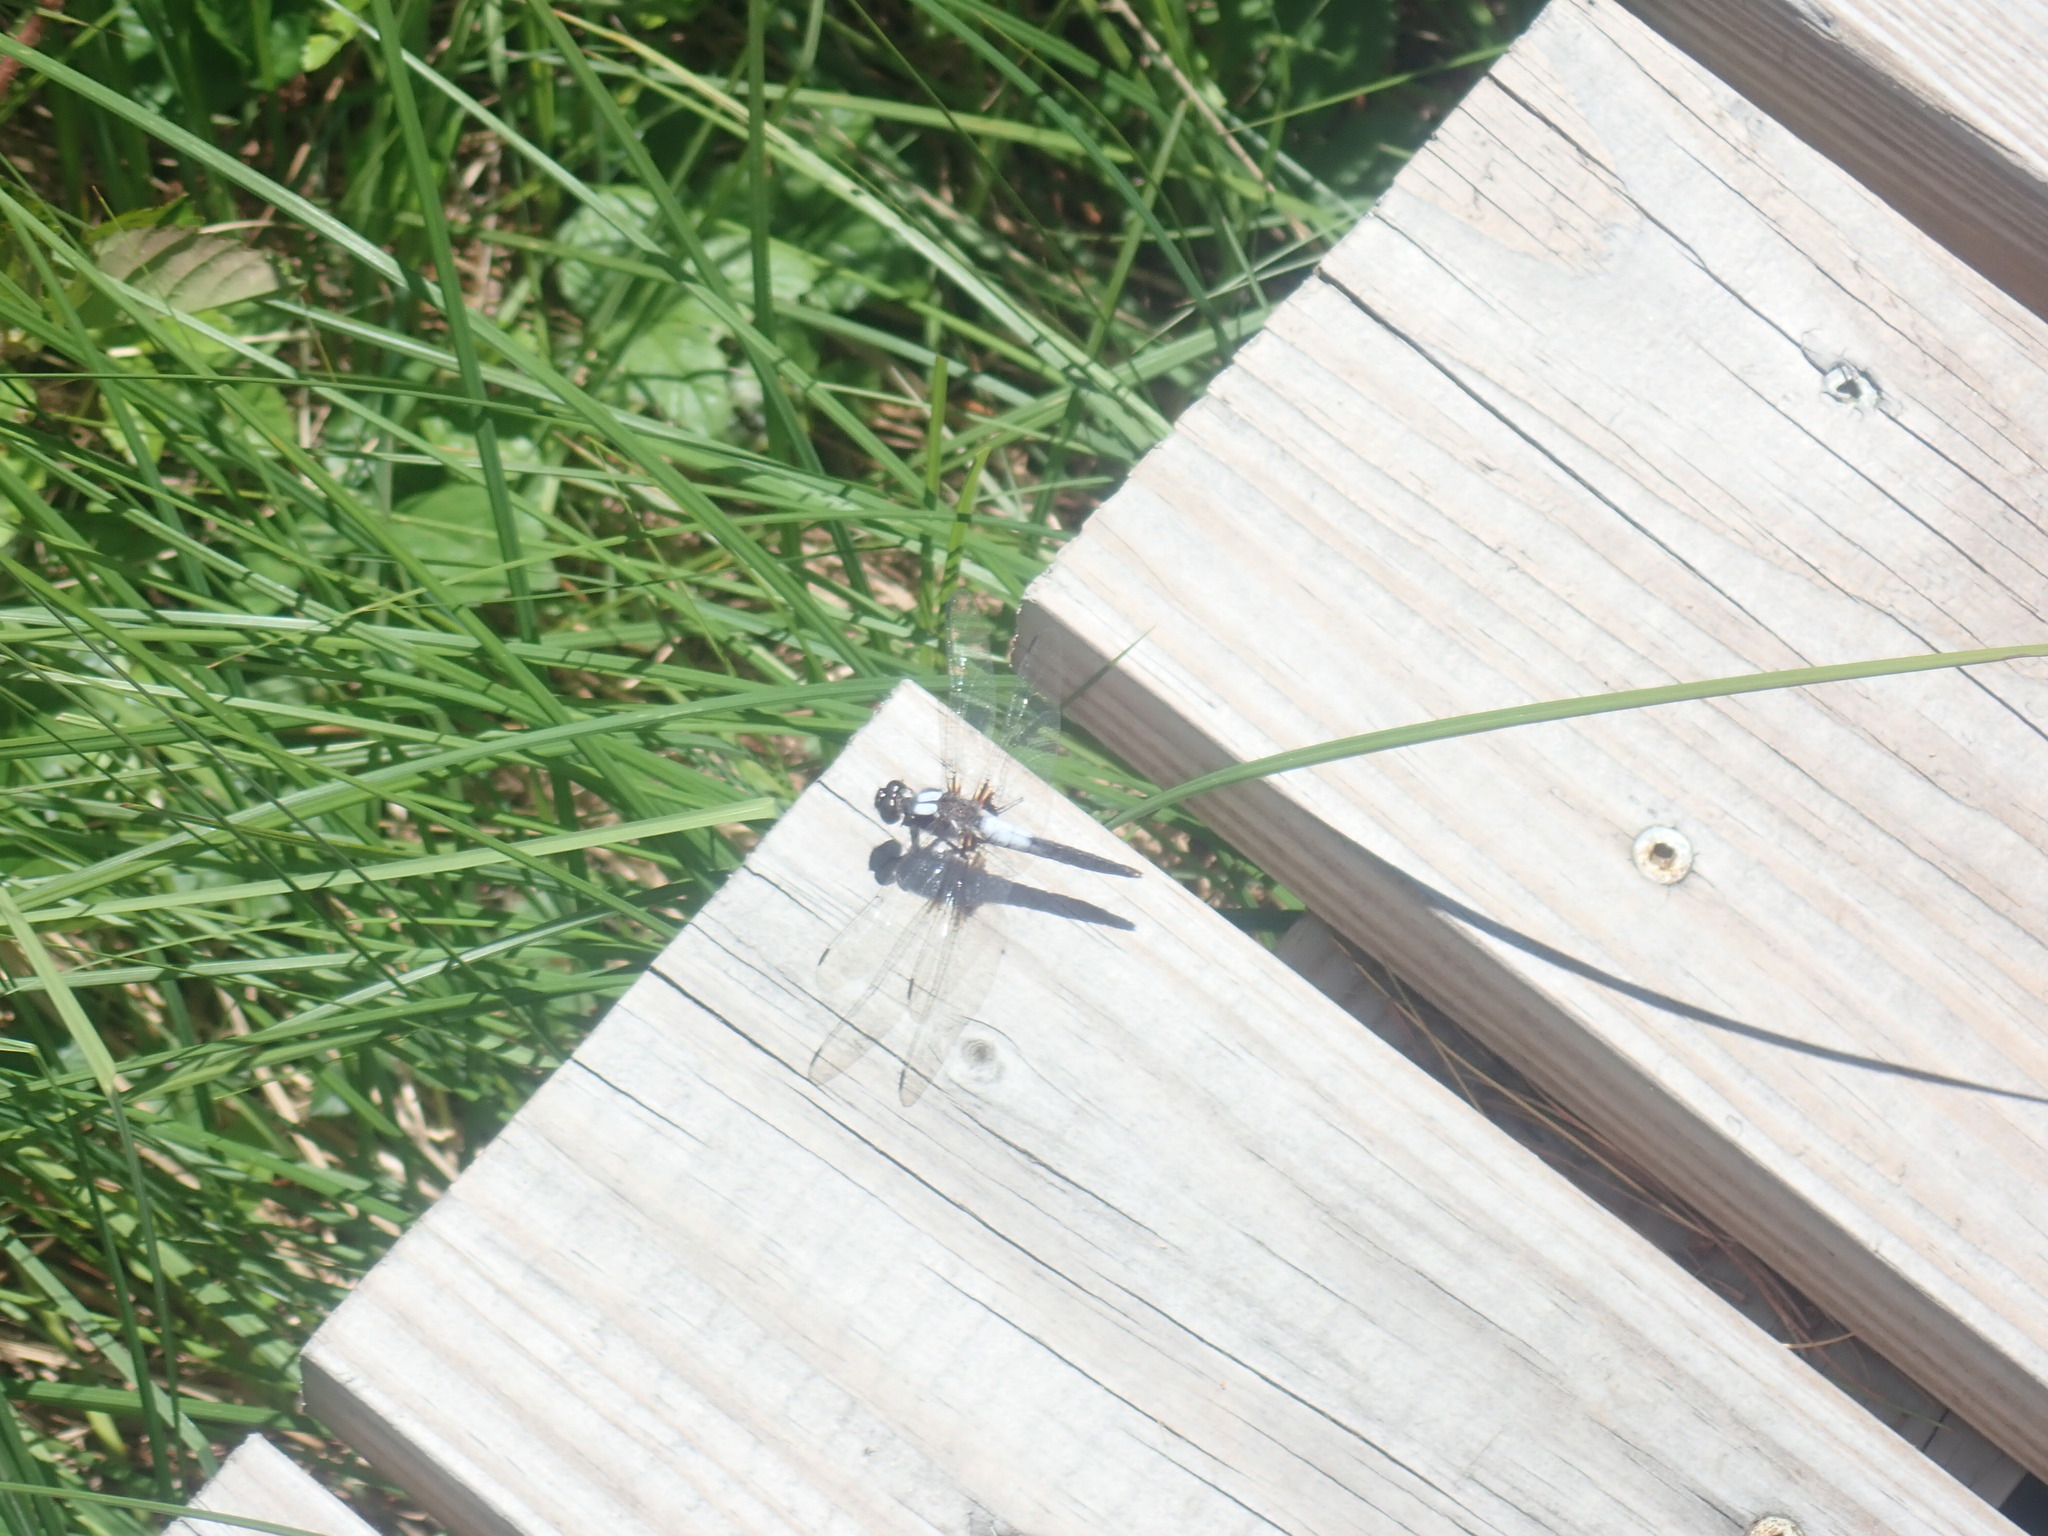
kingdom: Animalia
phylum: Arthropoda
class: Insecta
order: Odonata
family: Libellulidae
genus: Ladona
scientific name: Ladona julia
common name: Chalk-fronted corporal
